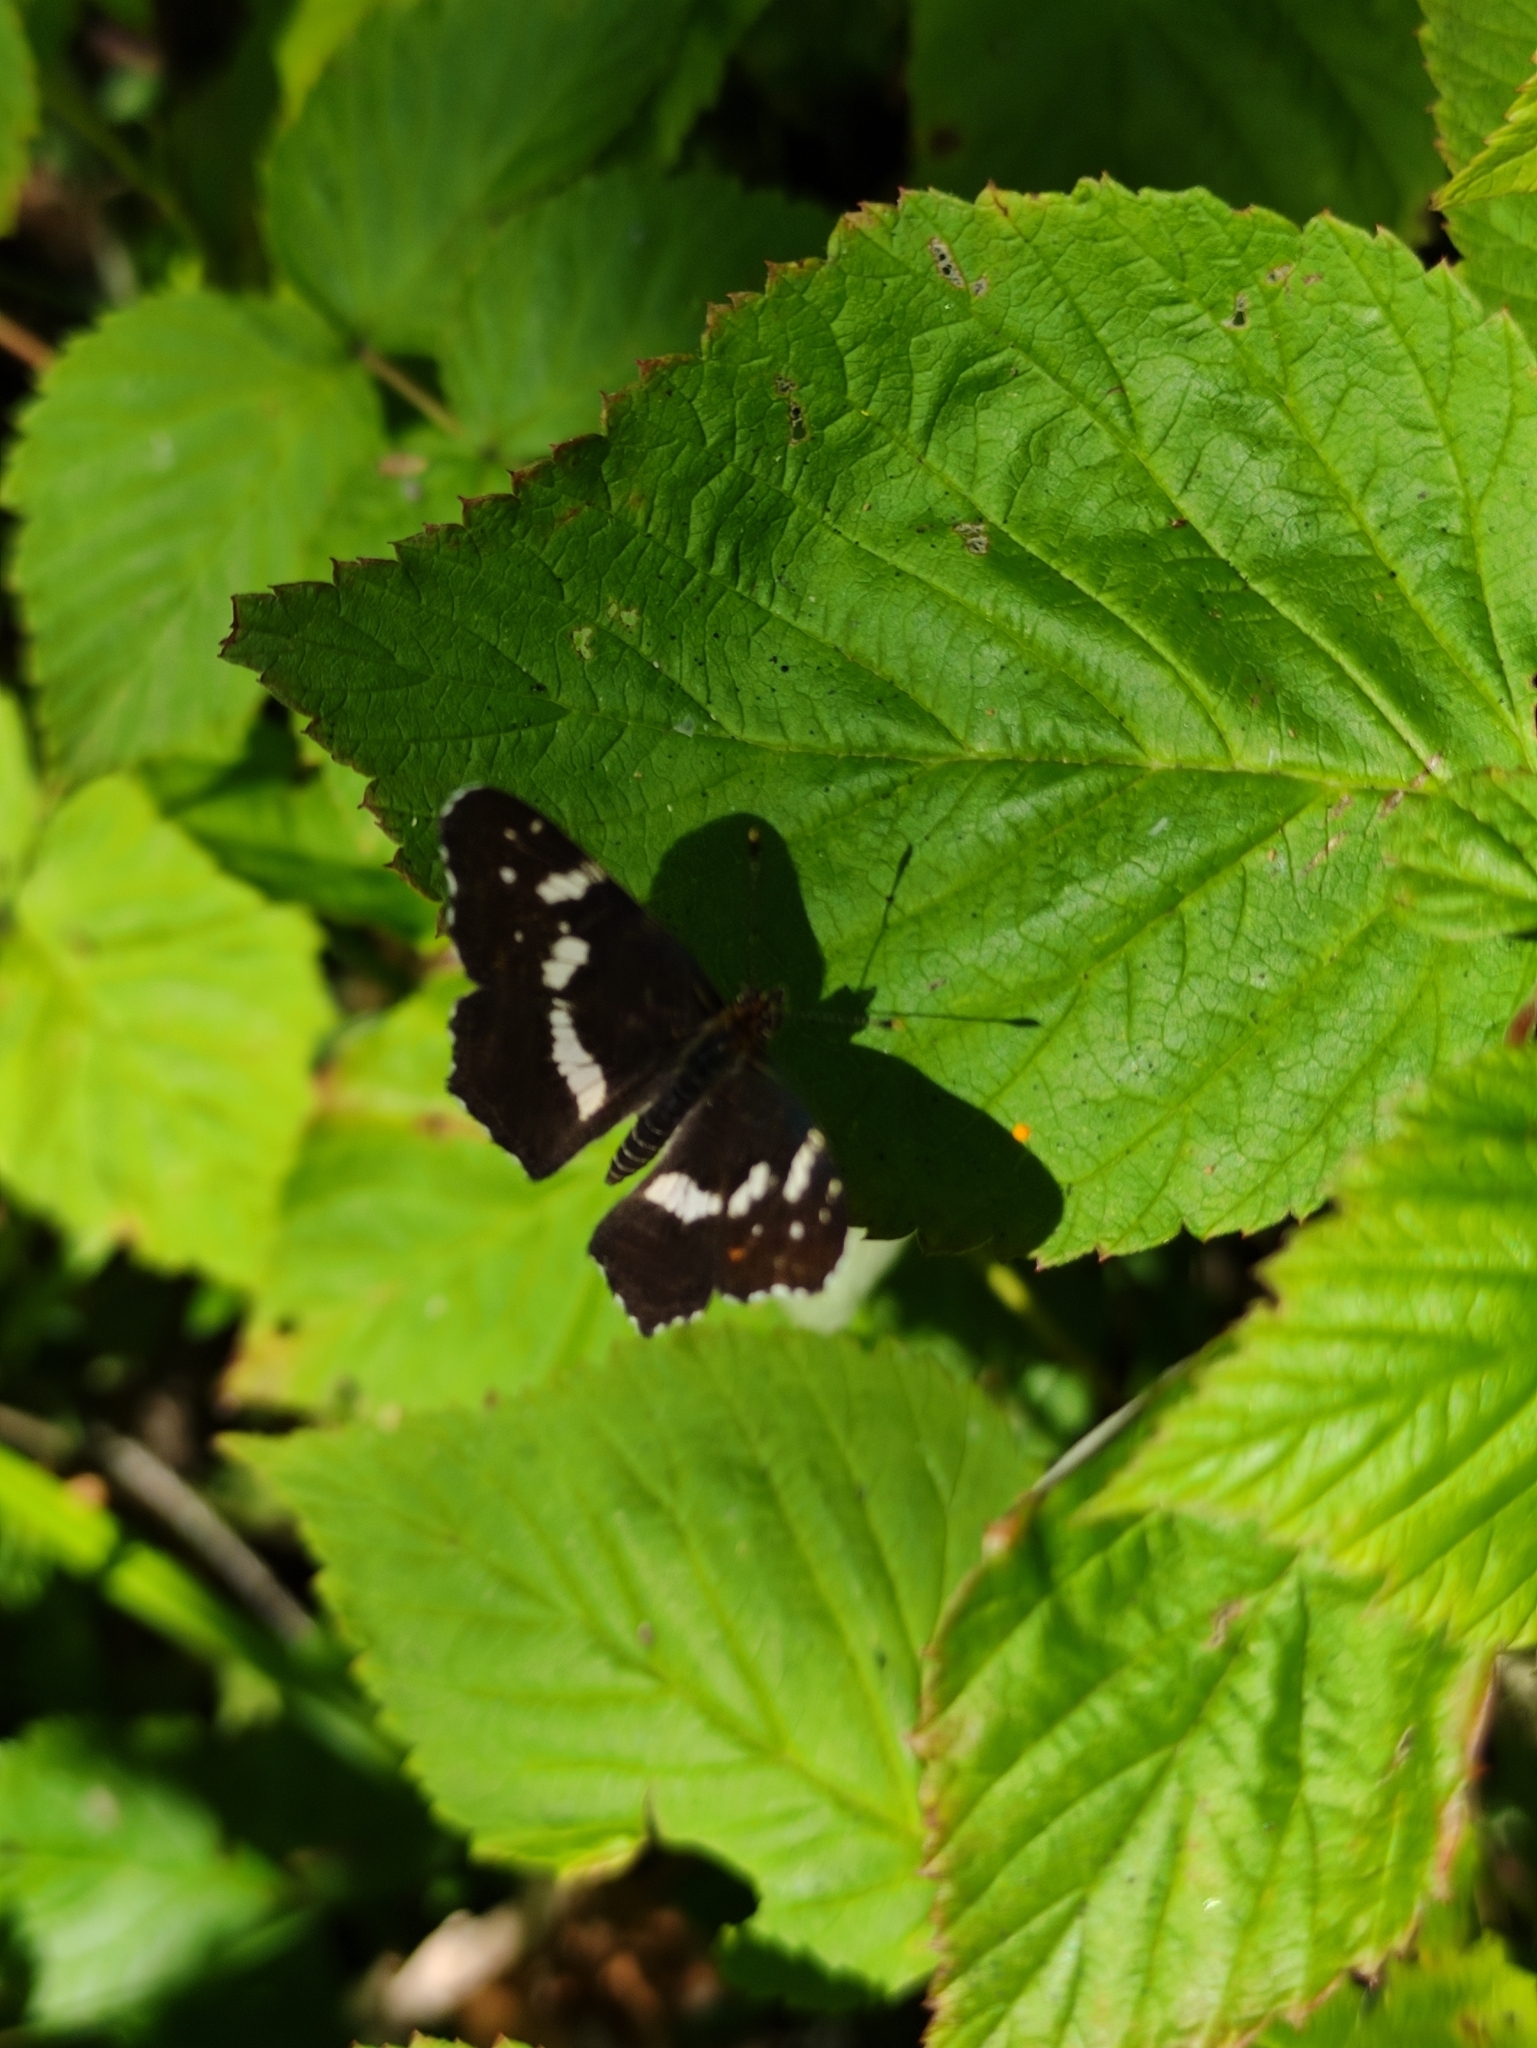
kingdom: Animalia
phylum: Arthropoda
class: Insecta
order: Lepidoptera
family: Nymphalidae
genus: Araschnia
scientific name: Araschnia levana
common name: Map butterfly
